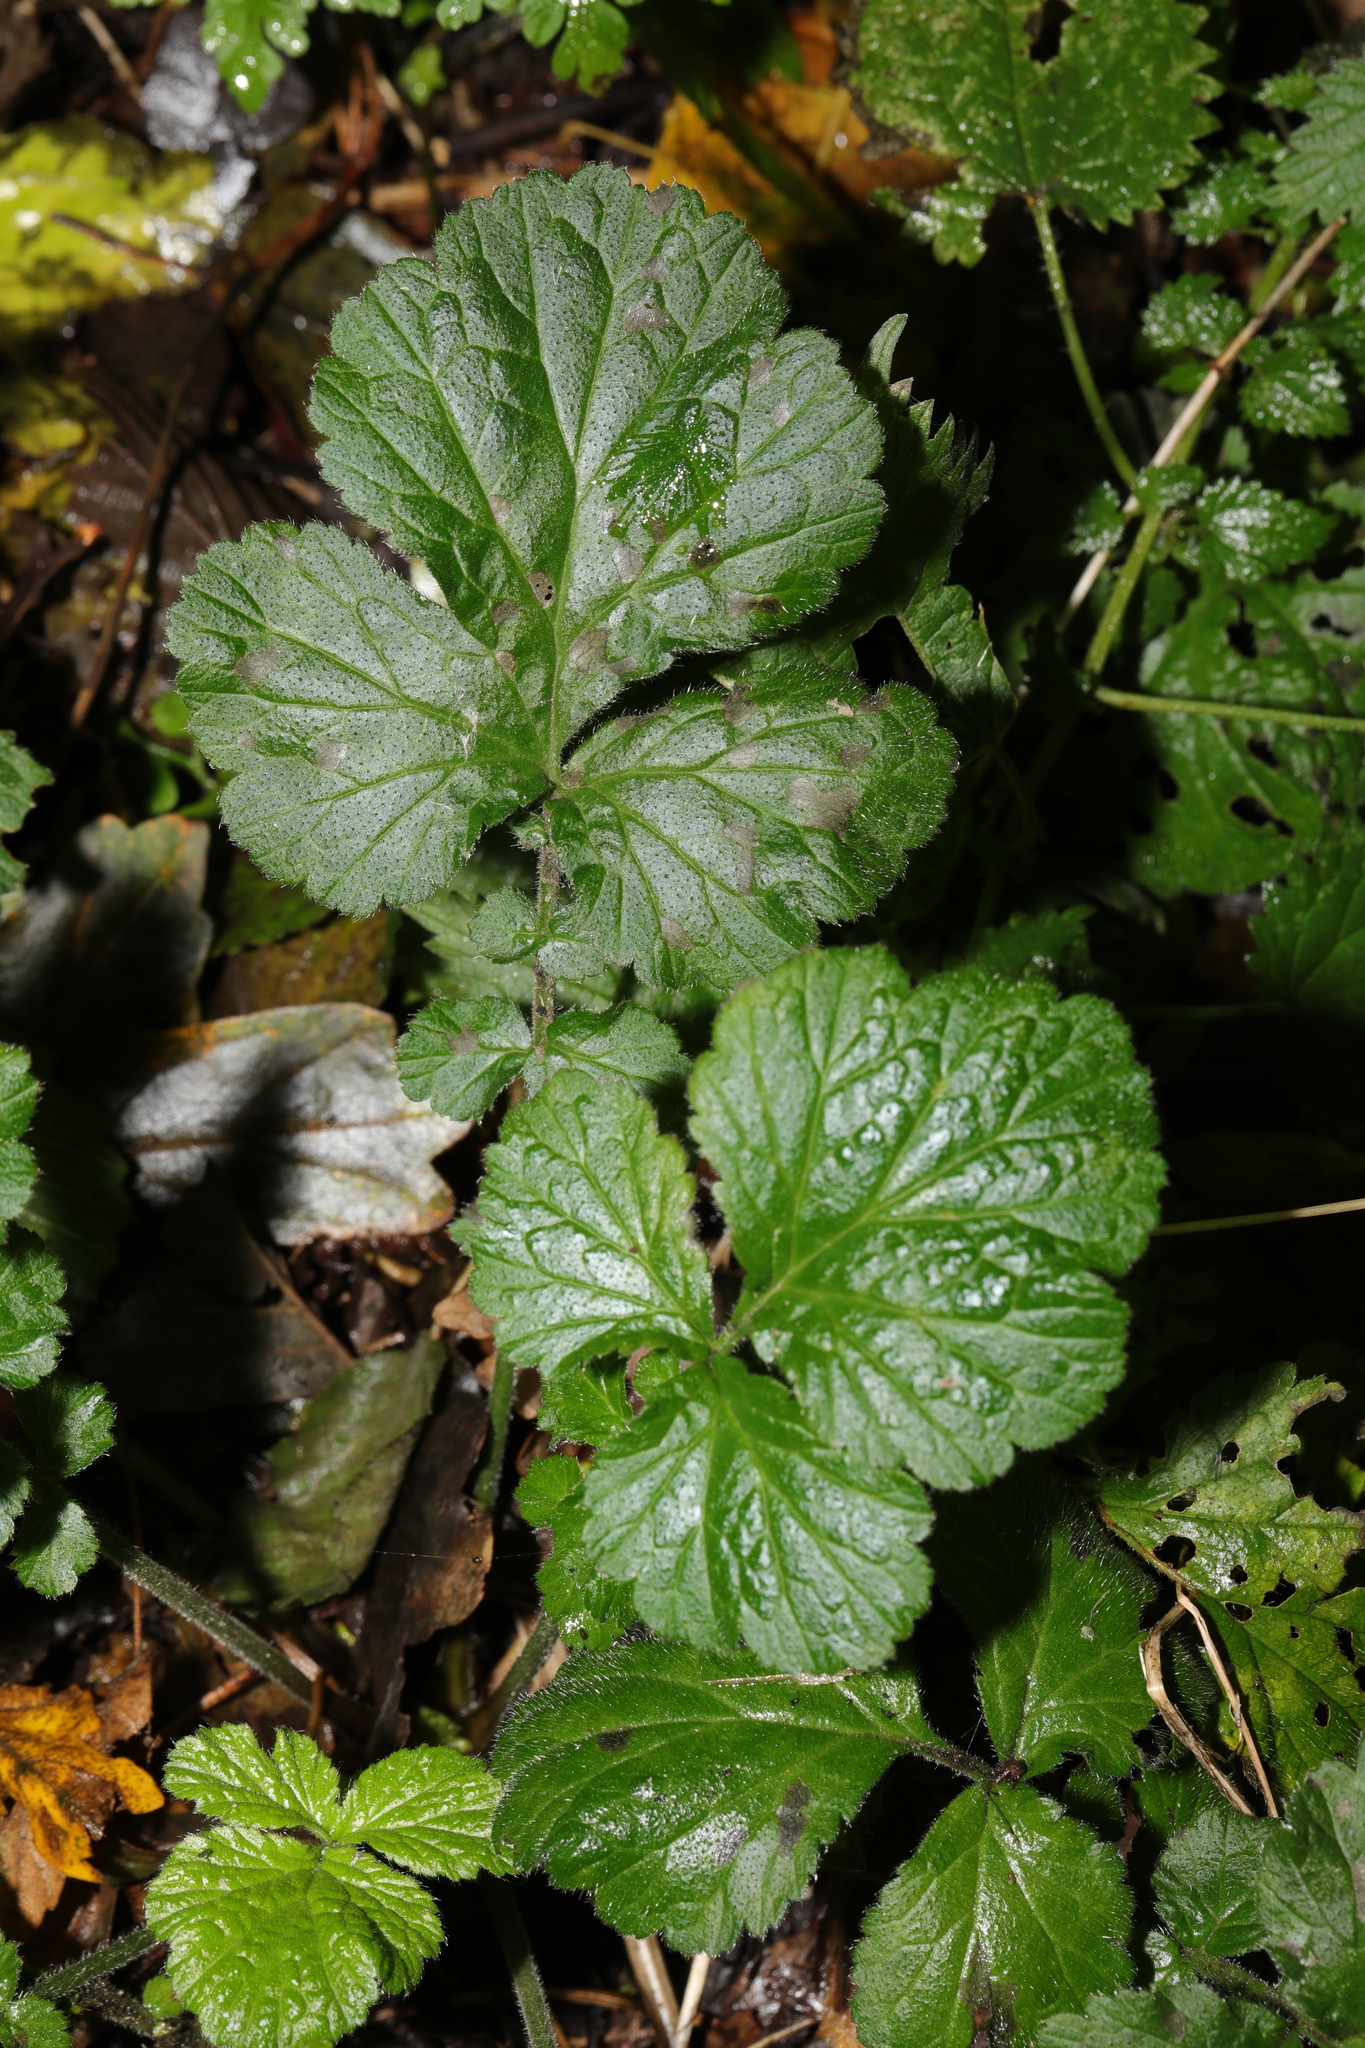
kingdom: Plantae
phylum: Tracheophyta
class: Magnoliopsida
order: Rosales
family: Rosaceae
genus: Geum
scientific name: Geum urbanum
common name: Wood avens
